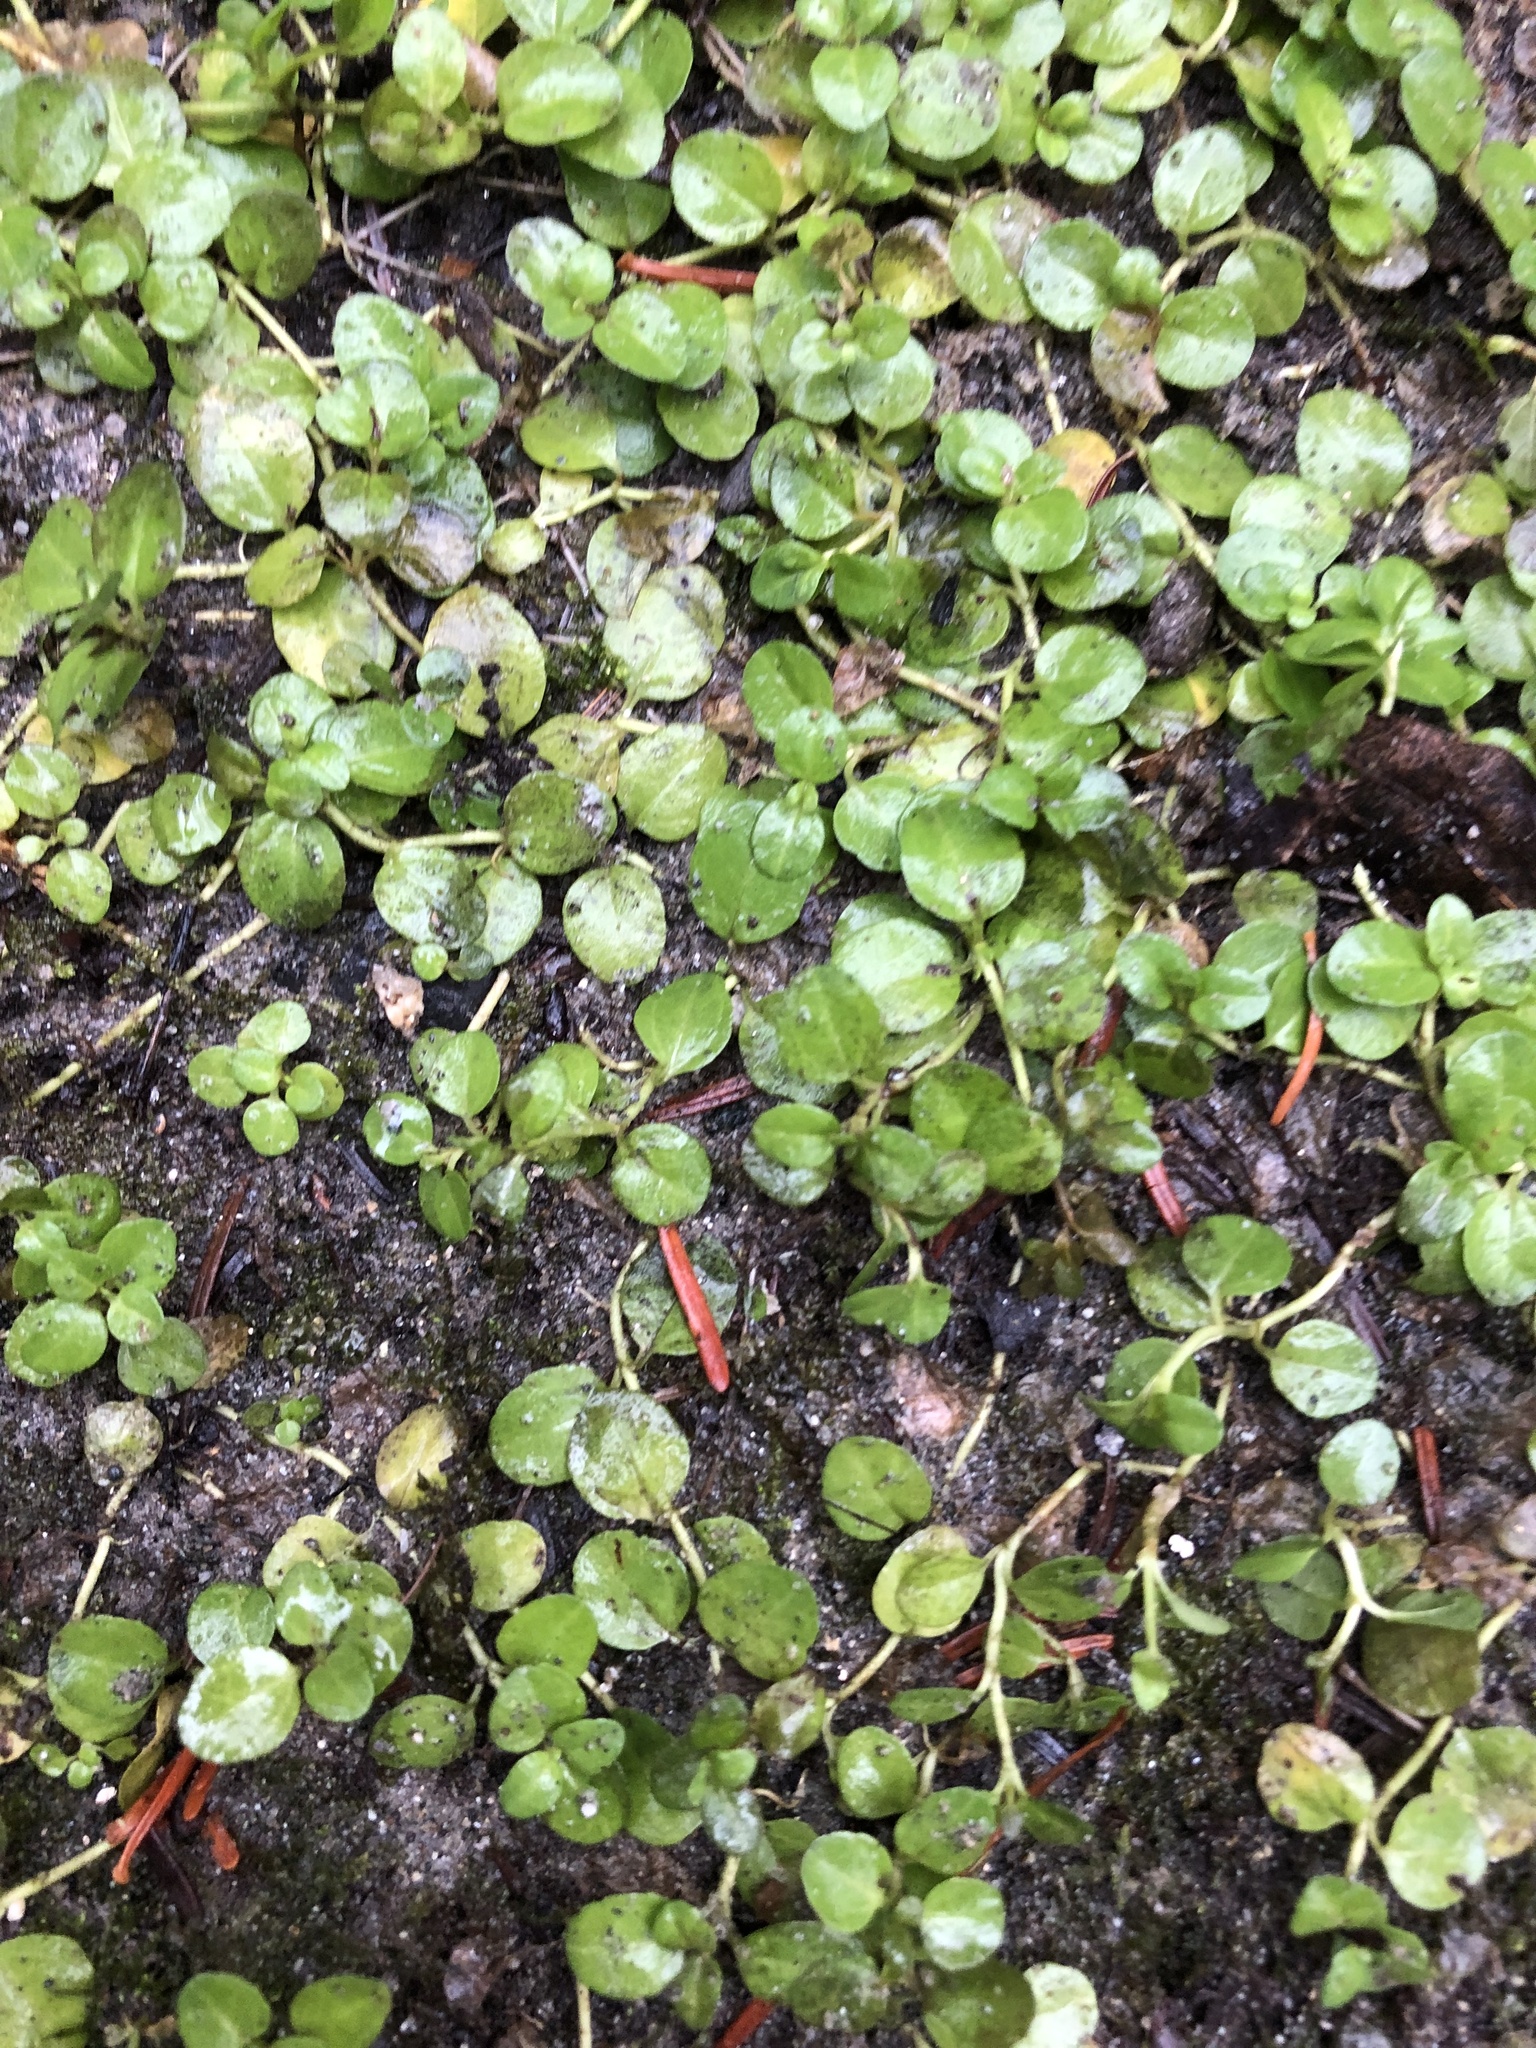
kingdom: Plantae
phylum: Tracheophyta
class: Magnoliopsida
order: Lamiales
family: Plantaginaceae
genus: Veronica
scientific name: Veronica serpyllifolia
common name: Thyme-leaved speedwell
